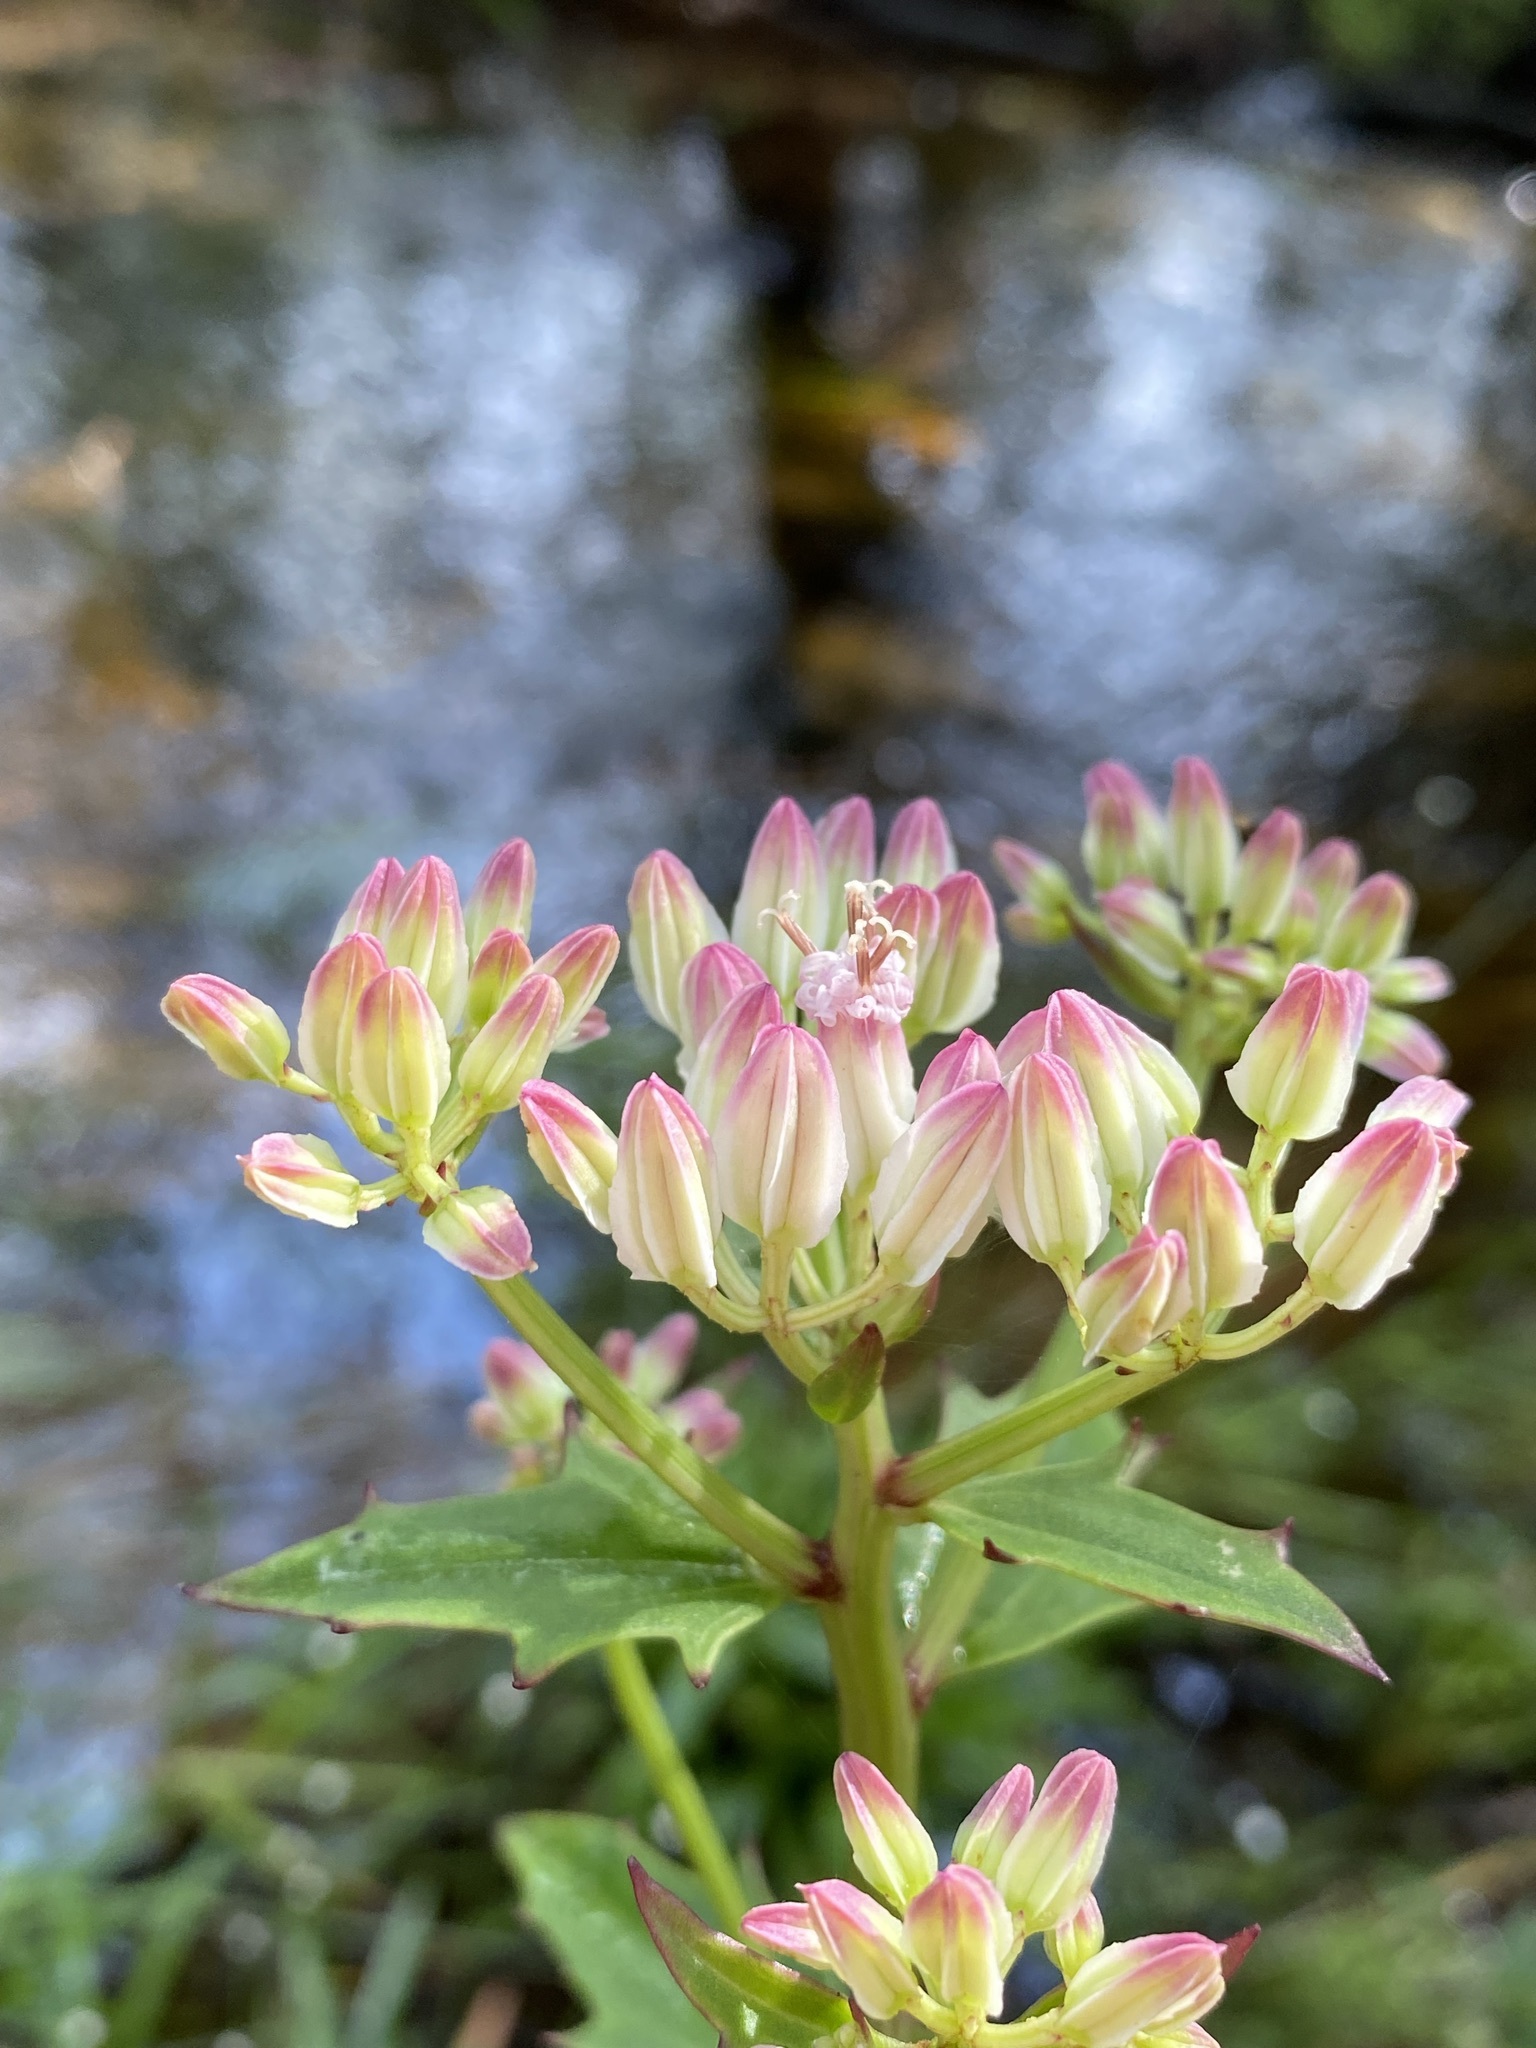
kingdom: Plantae
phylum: Tracheophyta
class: Magnoliopsida
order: Asterales
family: Asteraceae
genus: Arnoglossum
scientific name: Arnoglossum sulcatum
